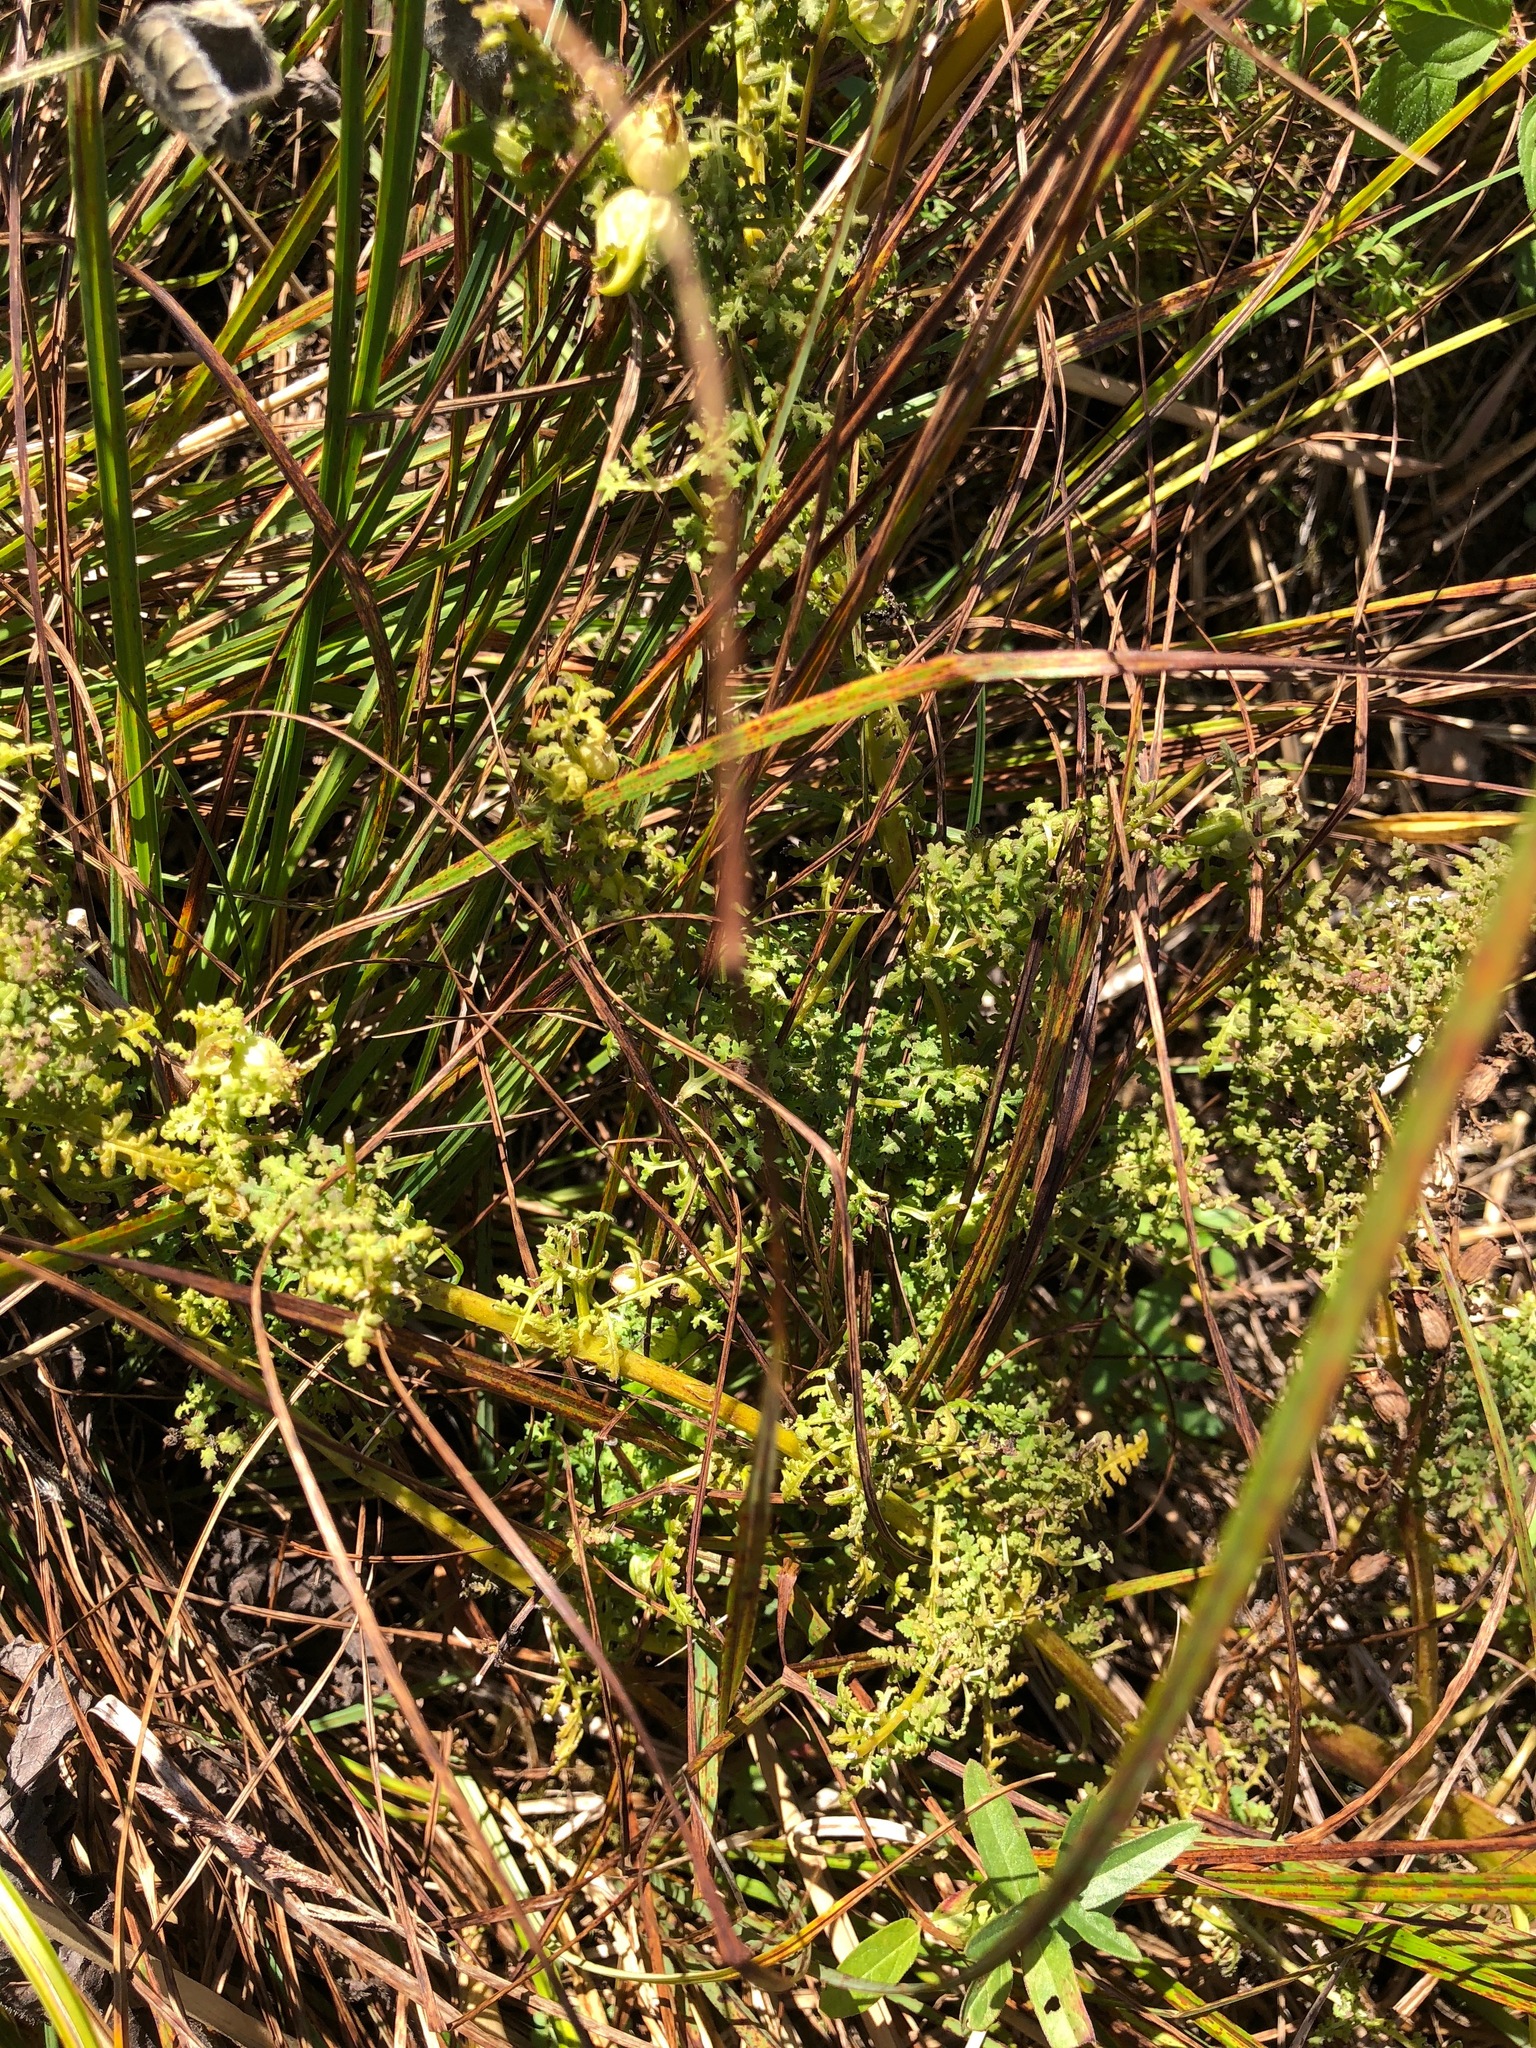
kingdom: Plantae
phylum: Tracheophyta
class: Magnoliopsida
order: Lamiales
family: Orobanchaceae
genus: Pedicularis
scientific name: Pedicularis palustris
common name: Marsh lousewort
